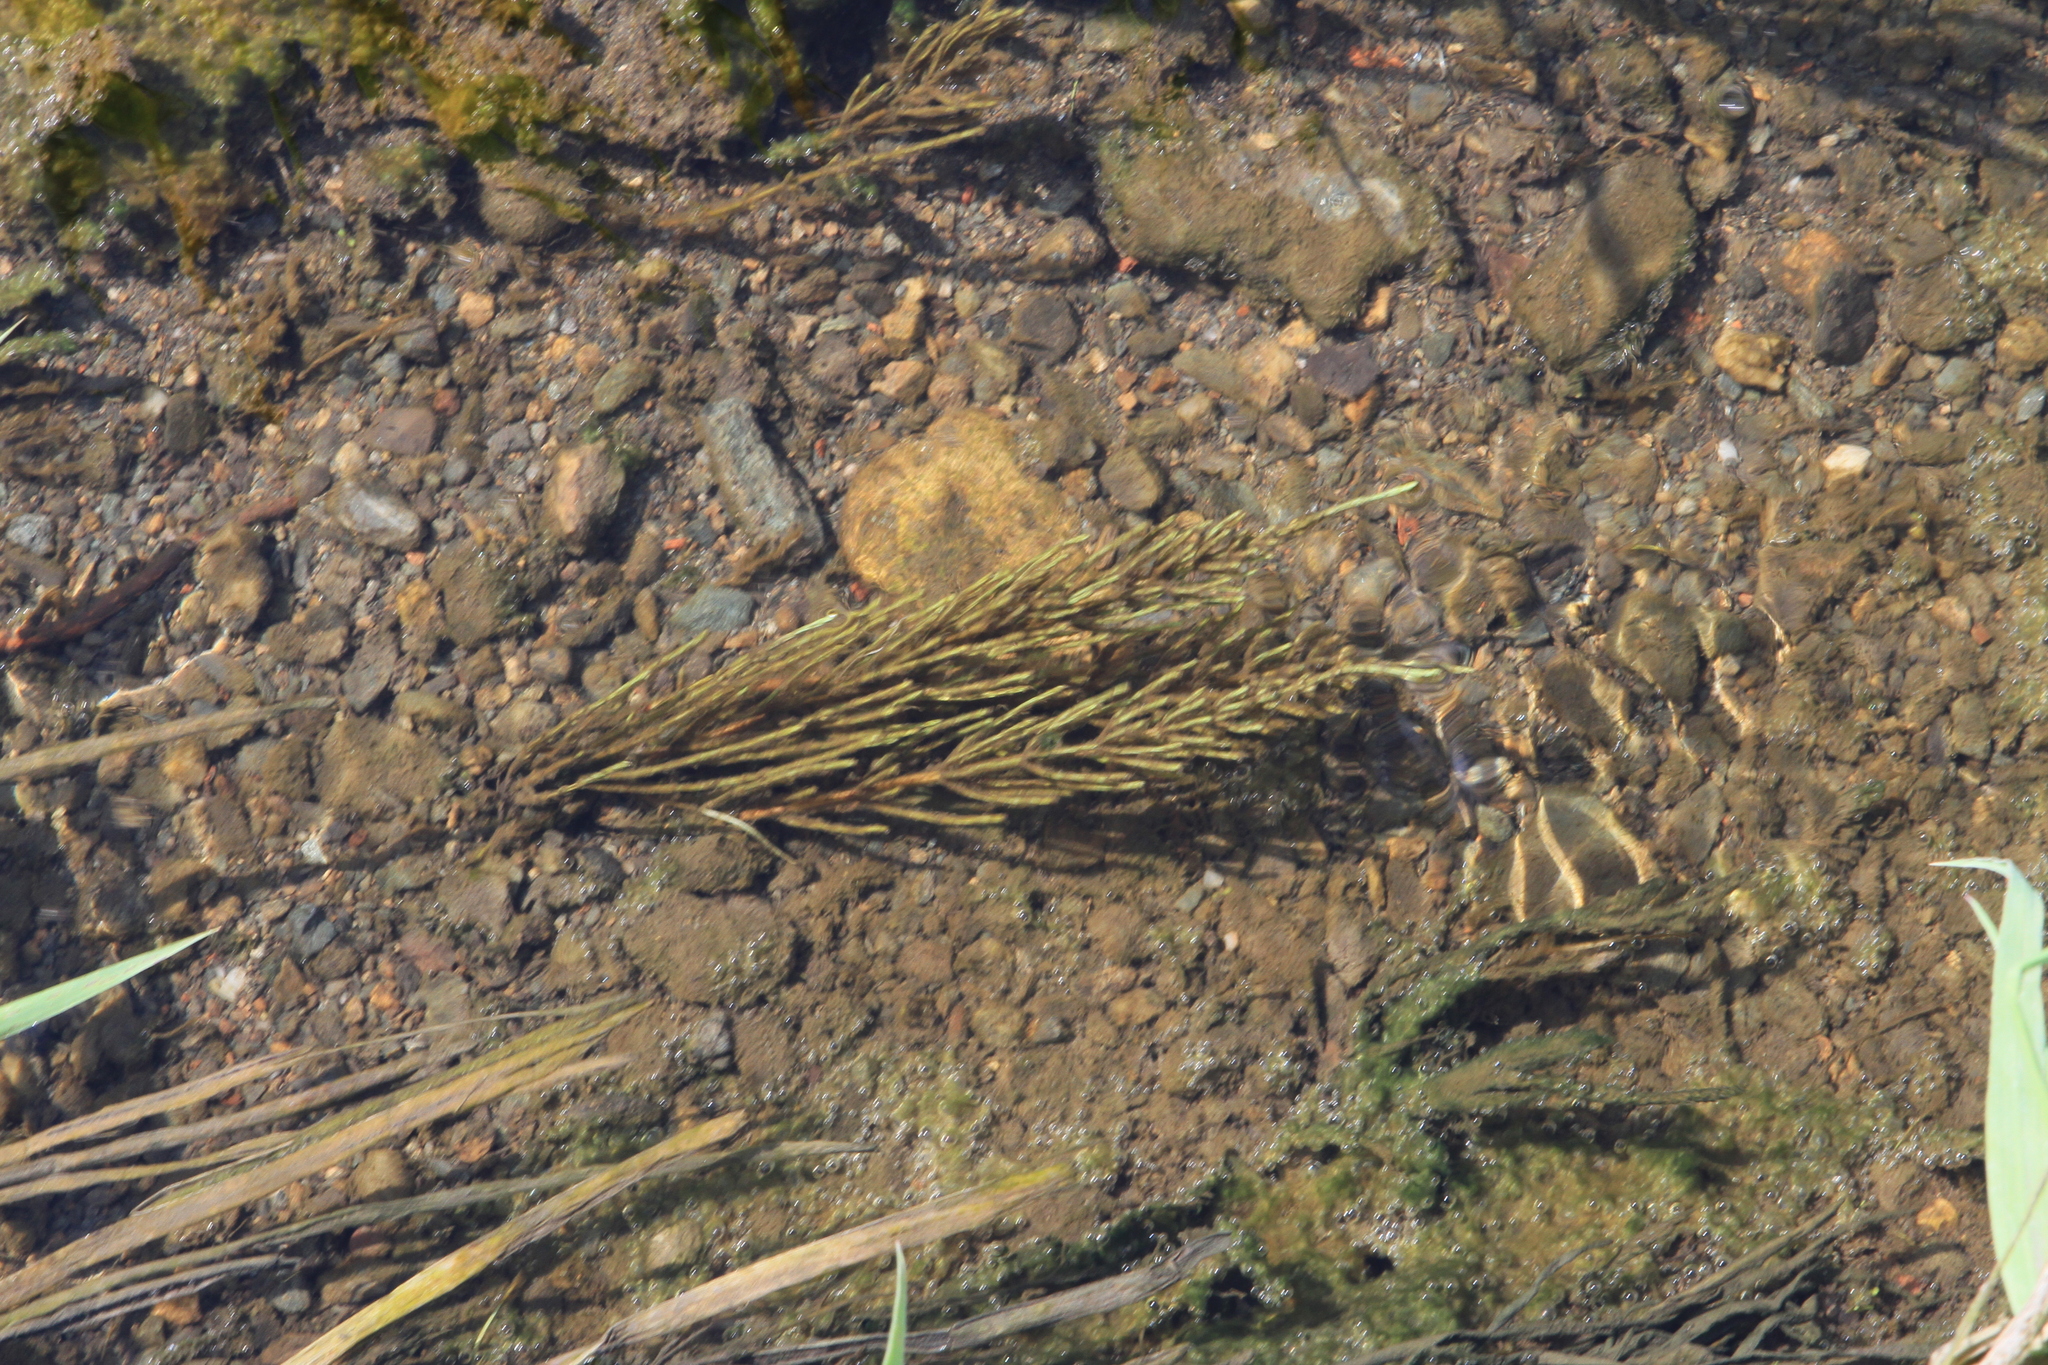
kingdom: Plantae
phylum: Tracheophyta
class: Polypodiopsida
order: Equisetales
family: Equisetaceae
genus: Equisetum
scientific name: Equisetum arvense
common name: Field horsetail
